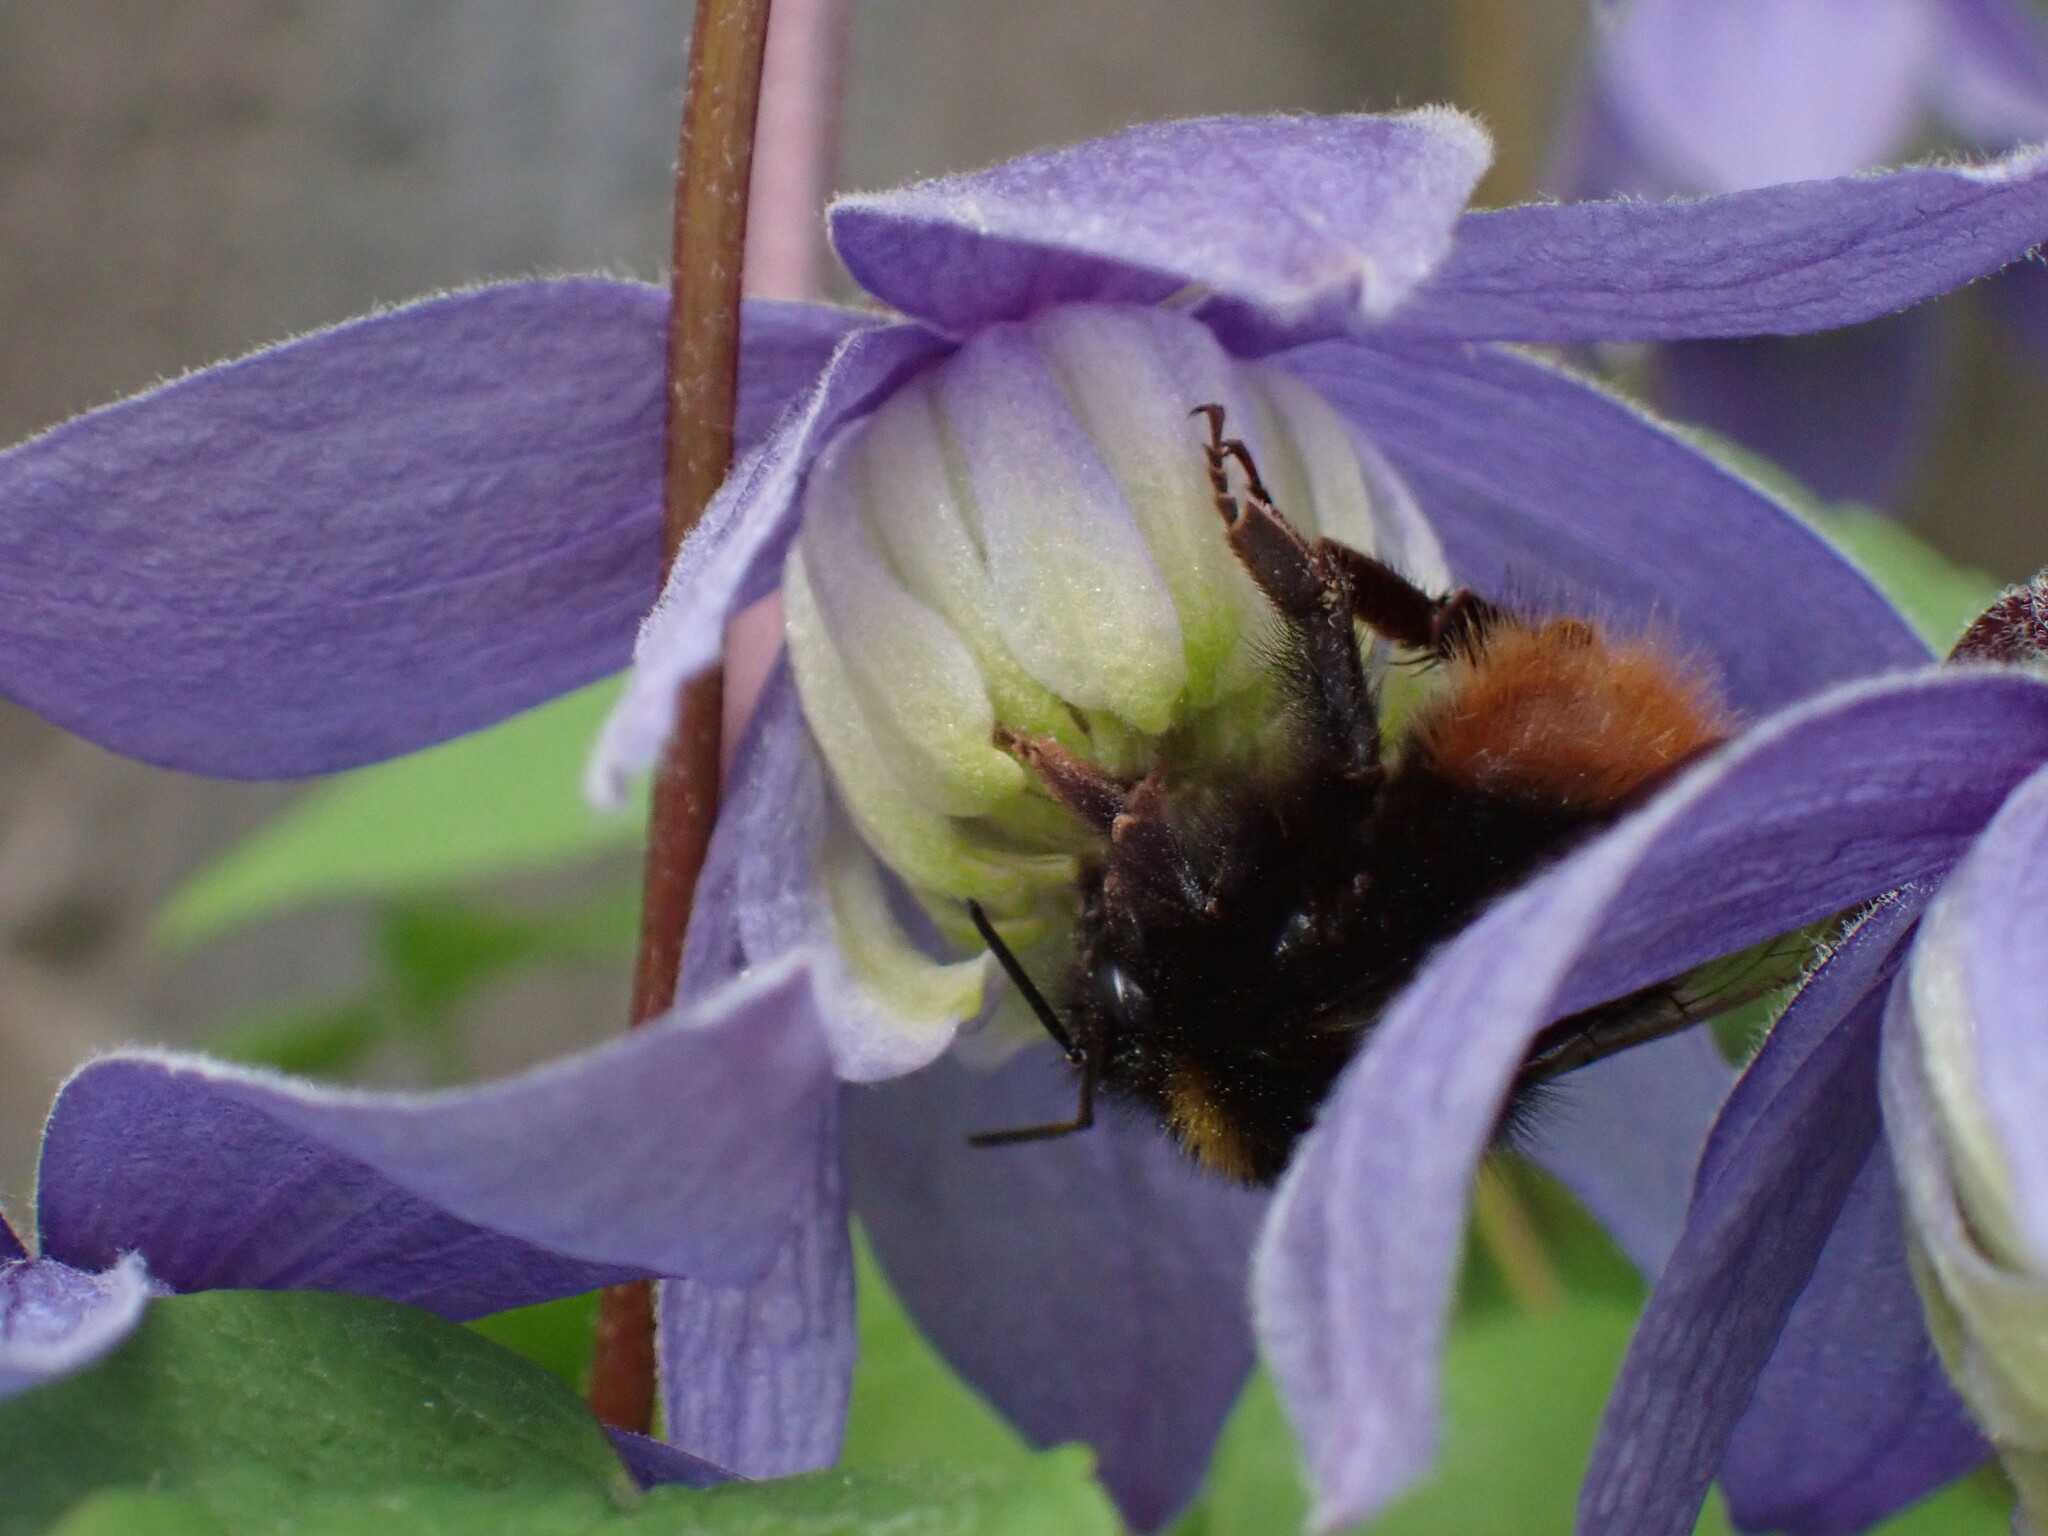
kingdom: Animalia
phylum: Arthropoda
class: Insecta
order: Hymenoptera
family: Apidae
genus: Bombus
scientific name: Bombus pratorum
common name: Early humble-bee
